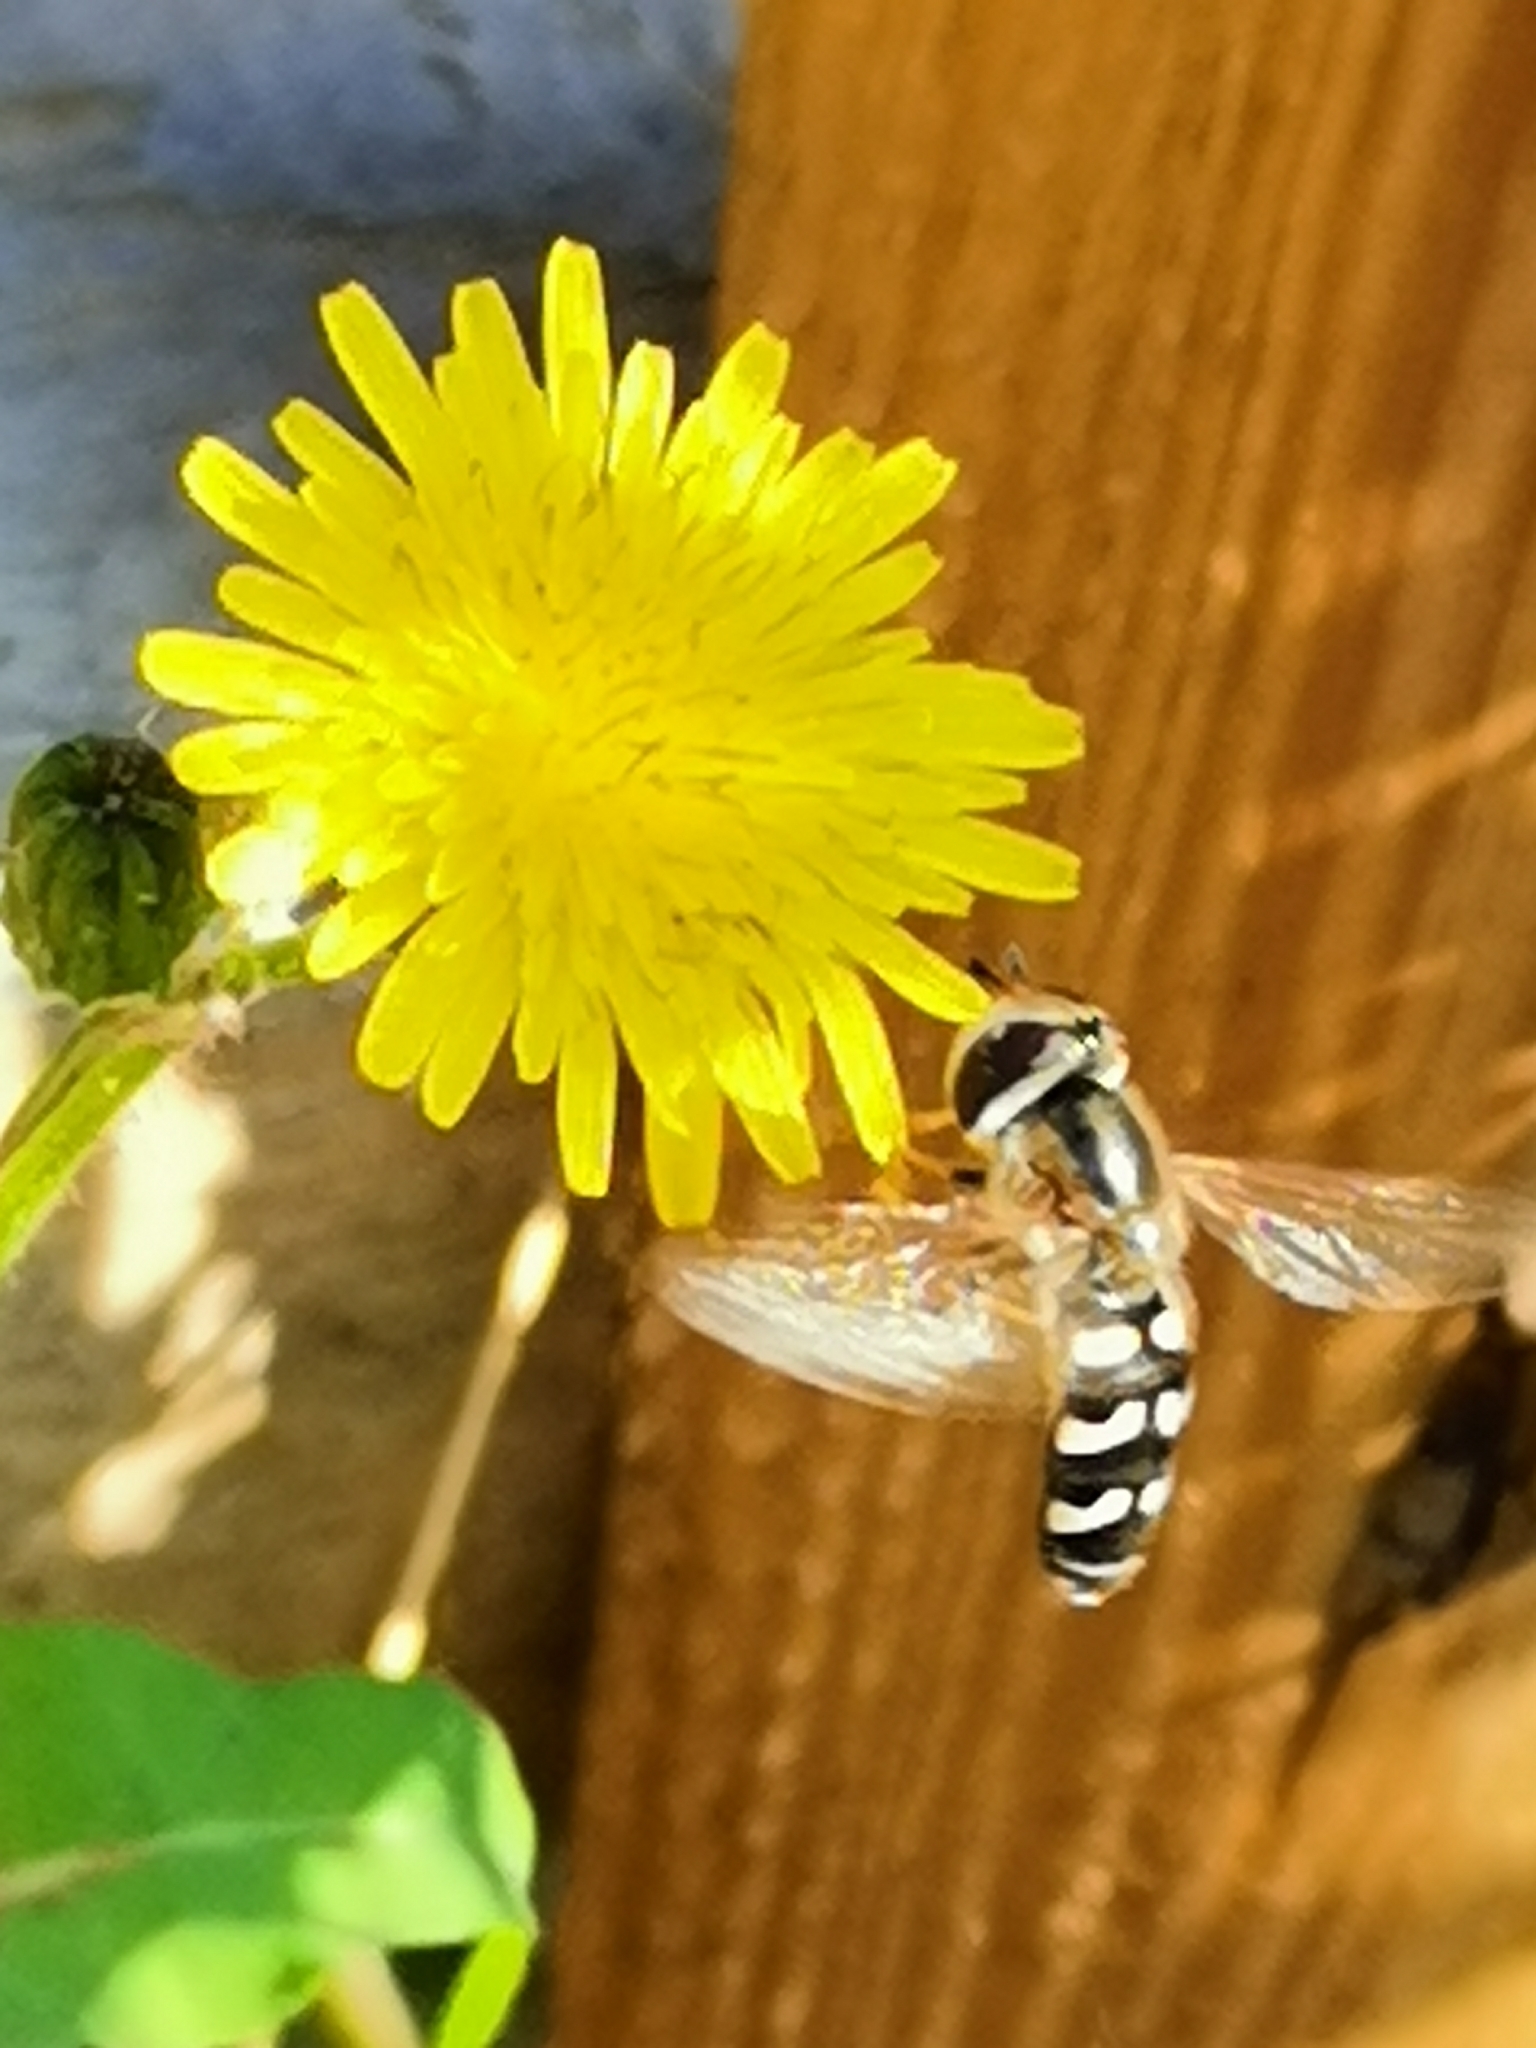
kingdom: Animalia
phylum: Arthropoda
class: Insecta
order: Diptera
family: Syrphidae
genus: Scaeva
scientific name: Scaeva pyrastri
